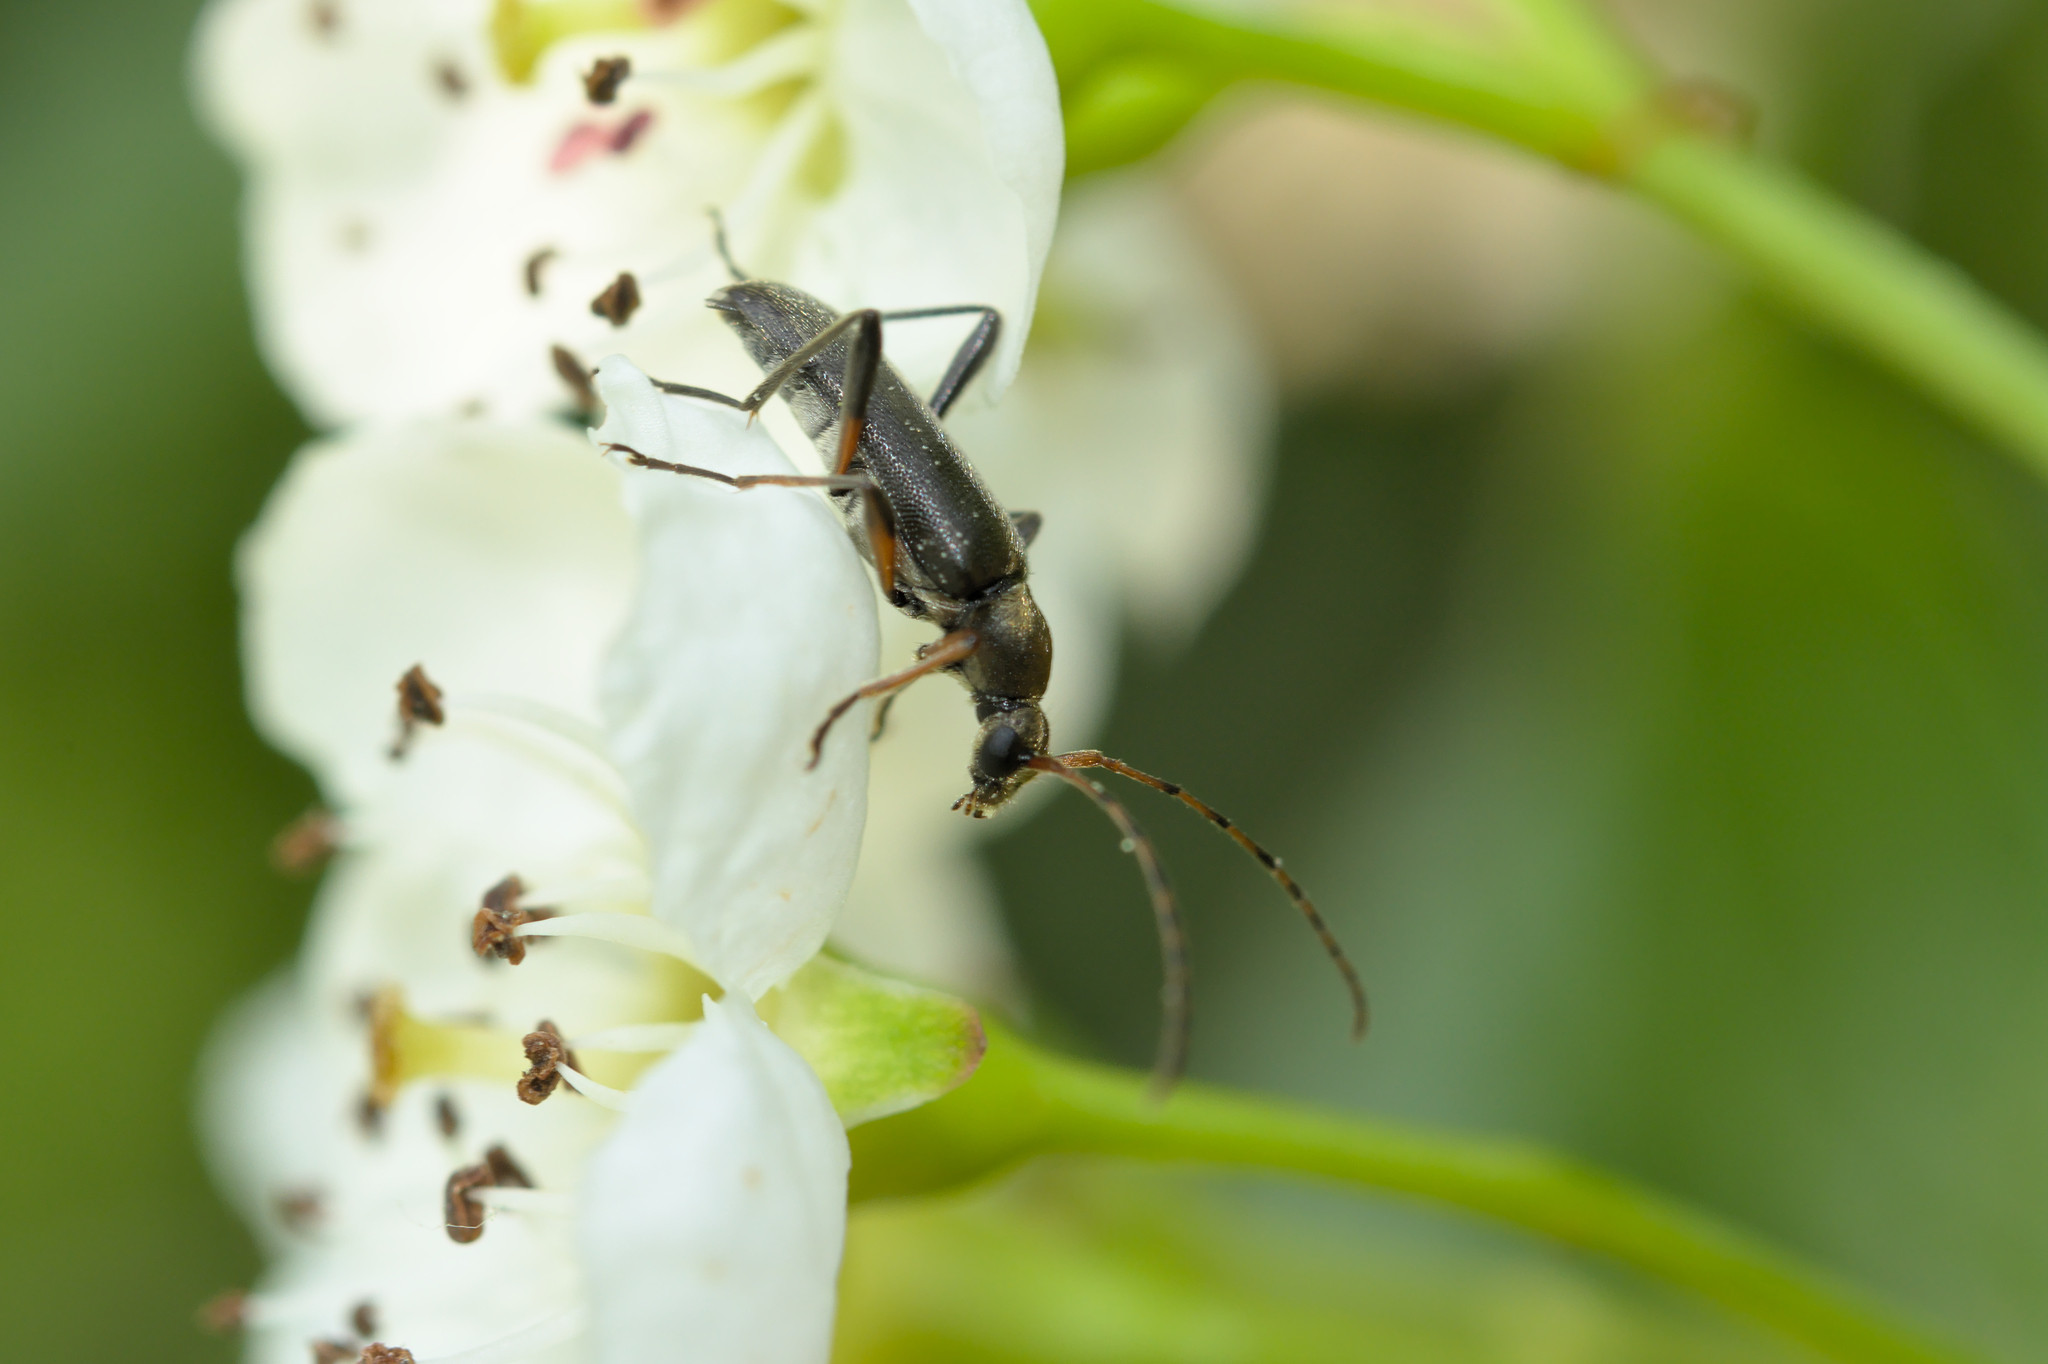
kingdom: Animalia
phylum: Arthropoda
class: Insecta
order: Coleoptera
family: Cerambycidae
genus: Grammoptera
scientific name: Grammoptera ruficornis
